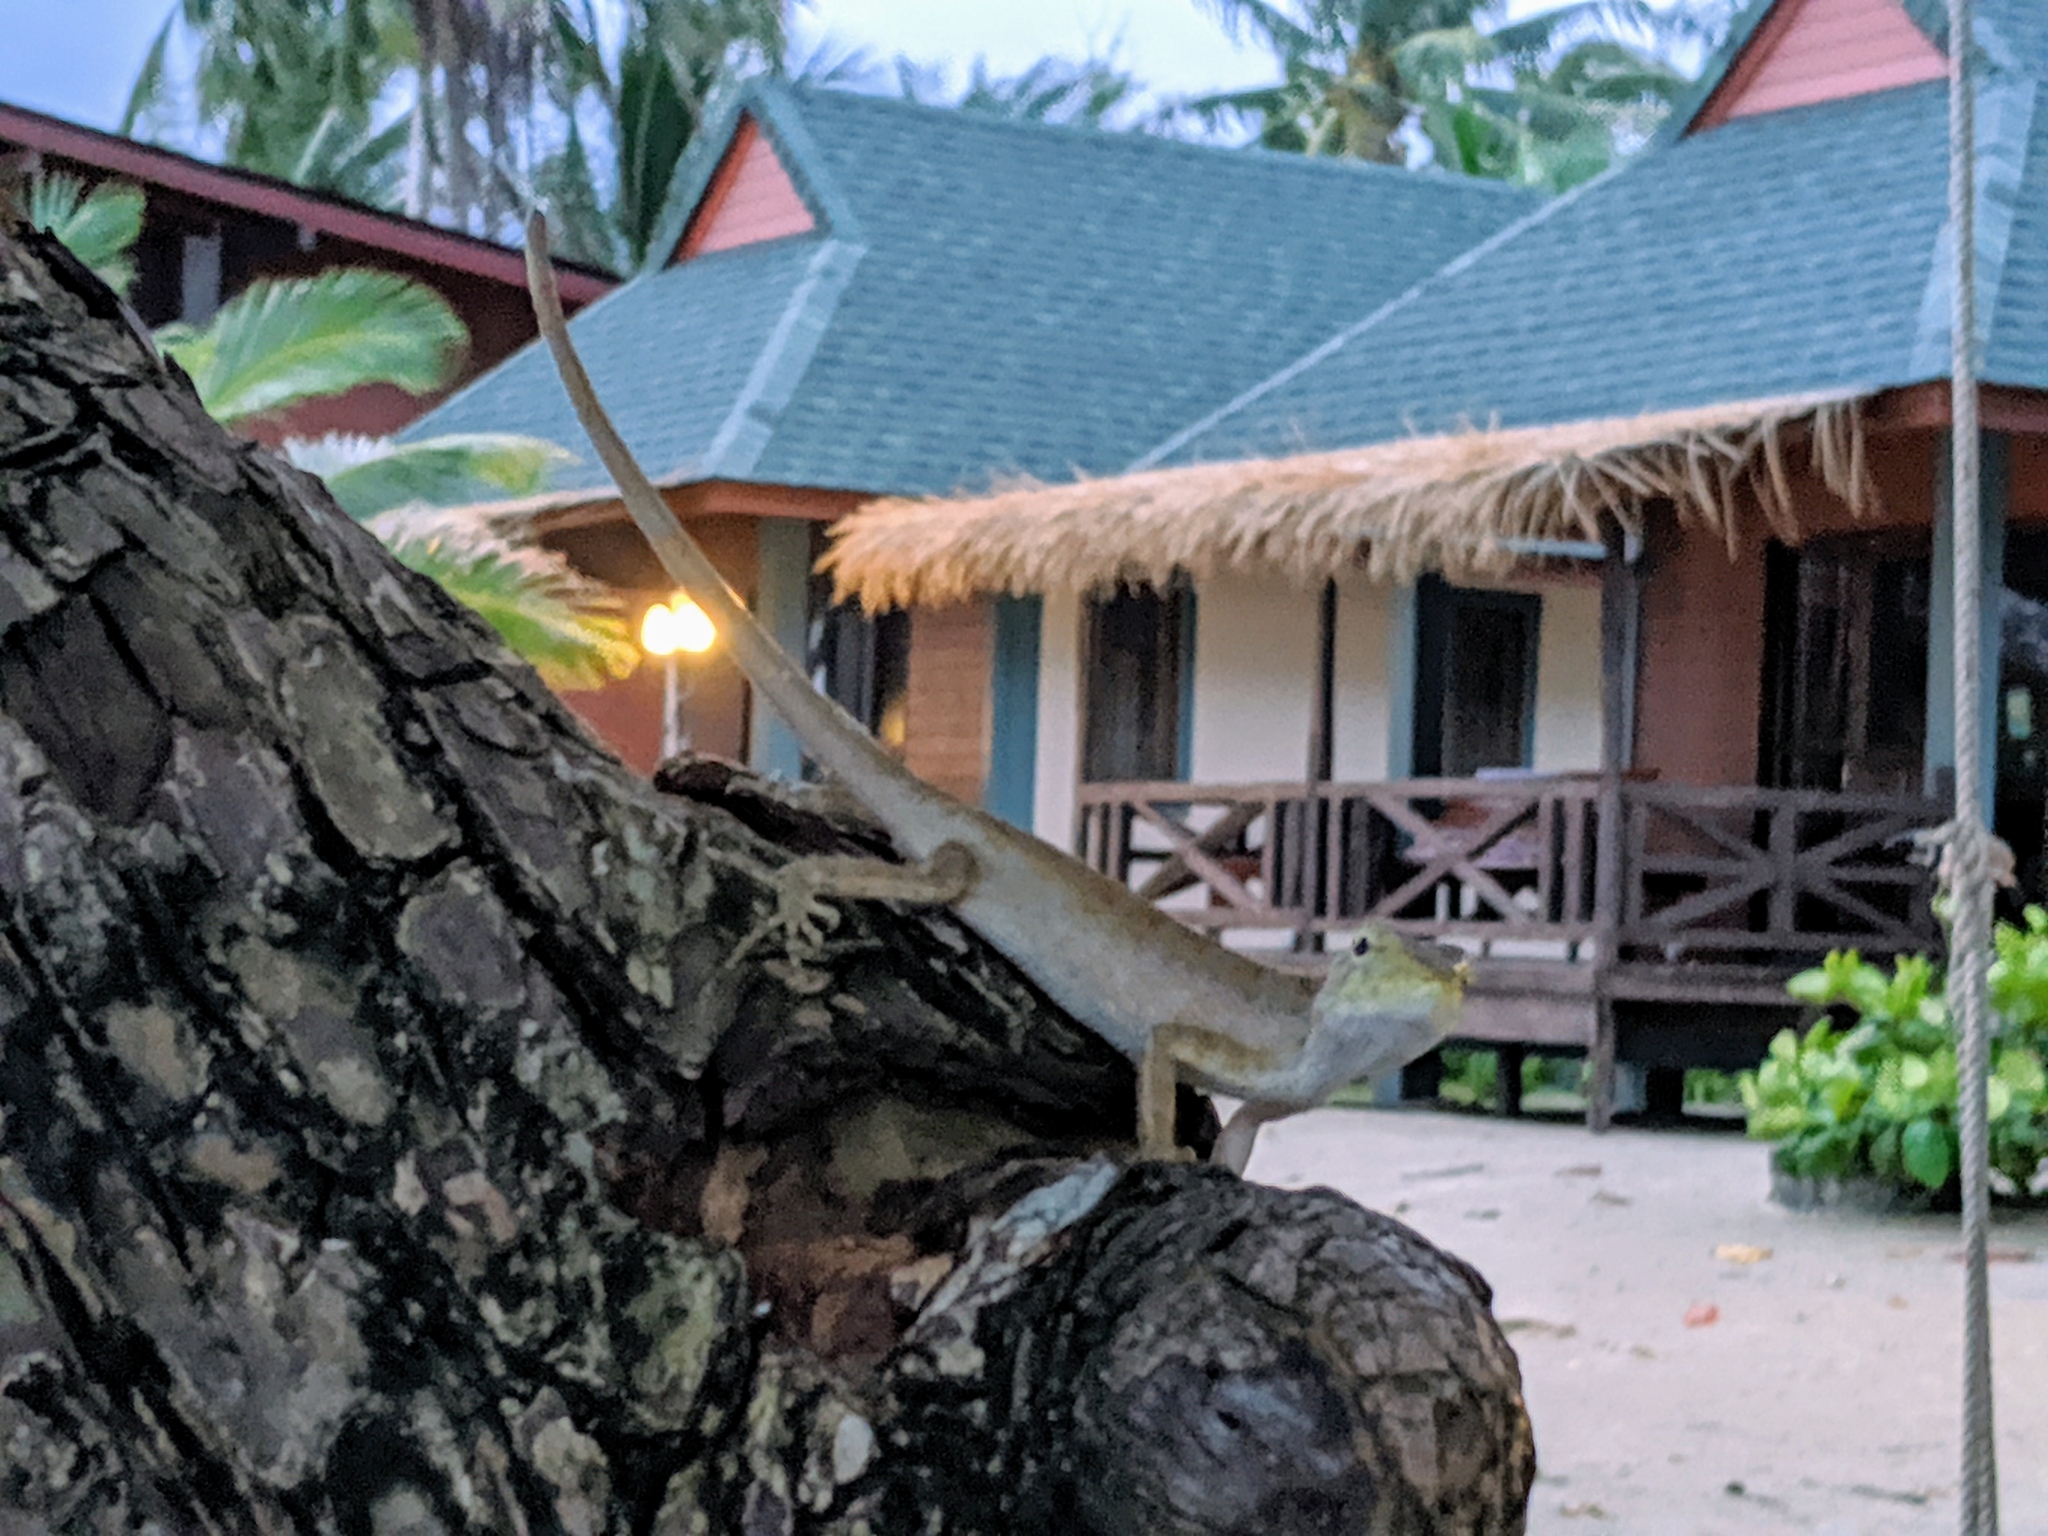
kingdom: Animalia
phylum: Chordata
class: Squamata
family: Agamidae
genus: Calotes
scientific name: Calotes versicolor
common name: Oriental garden lizard
